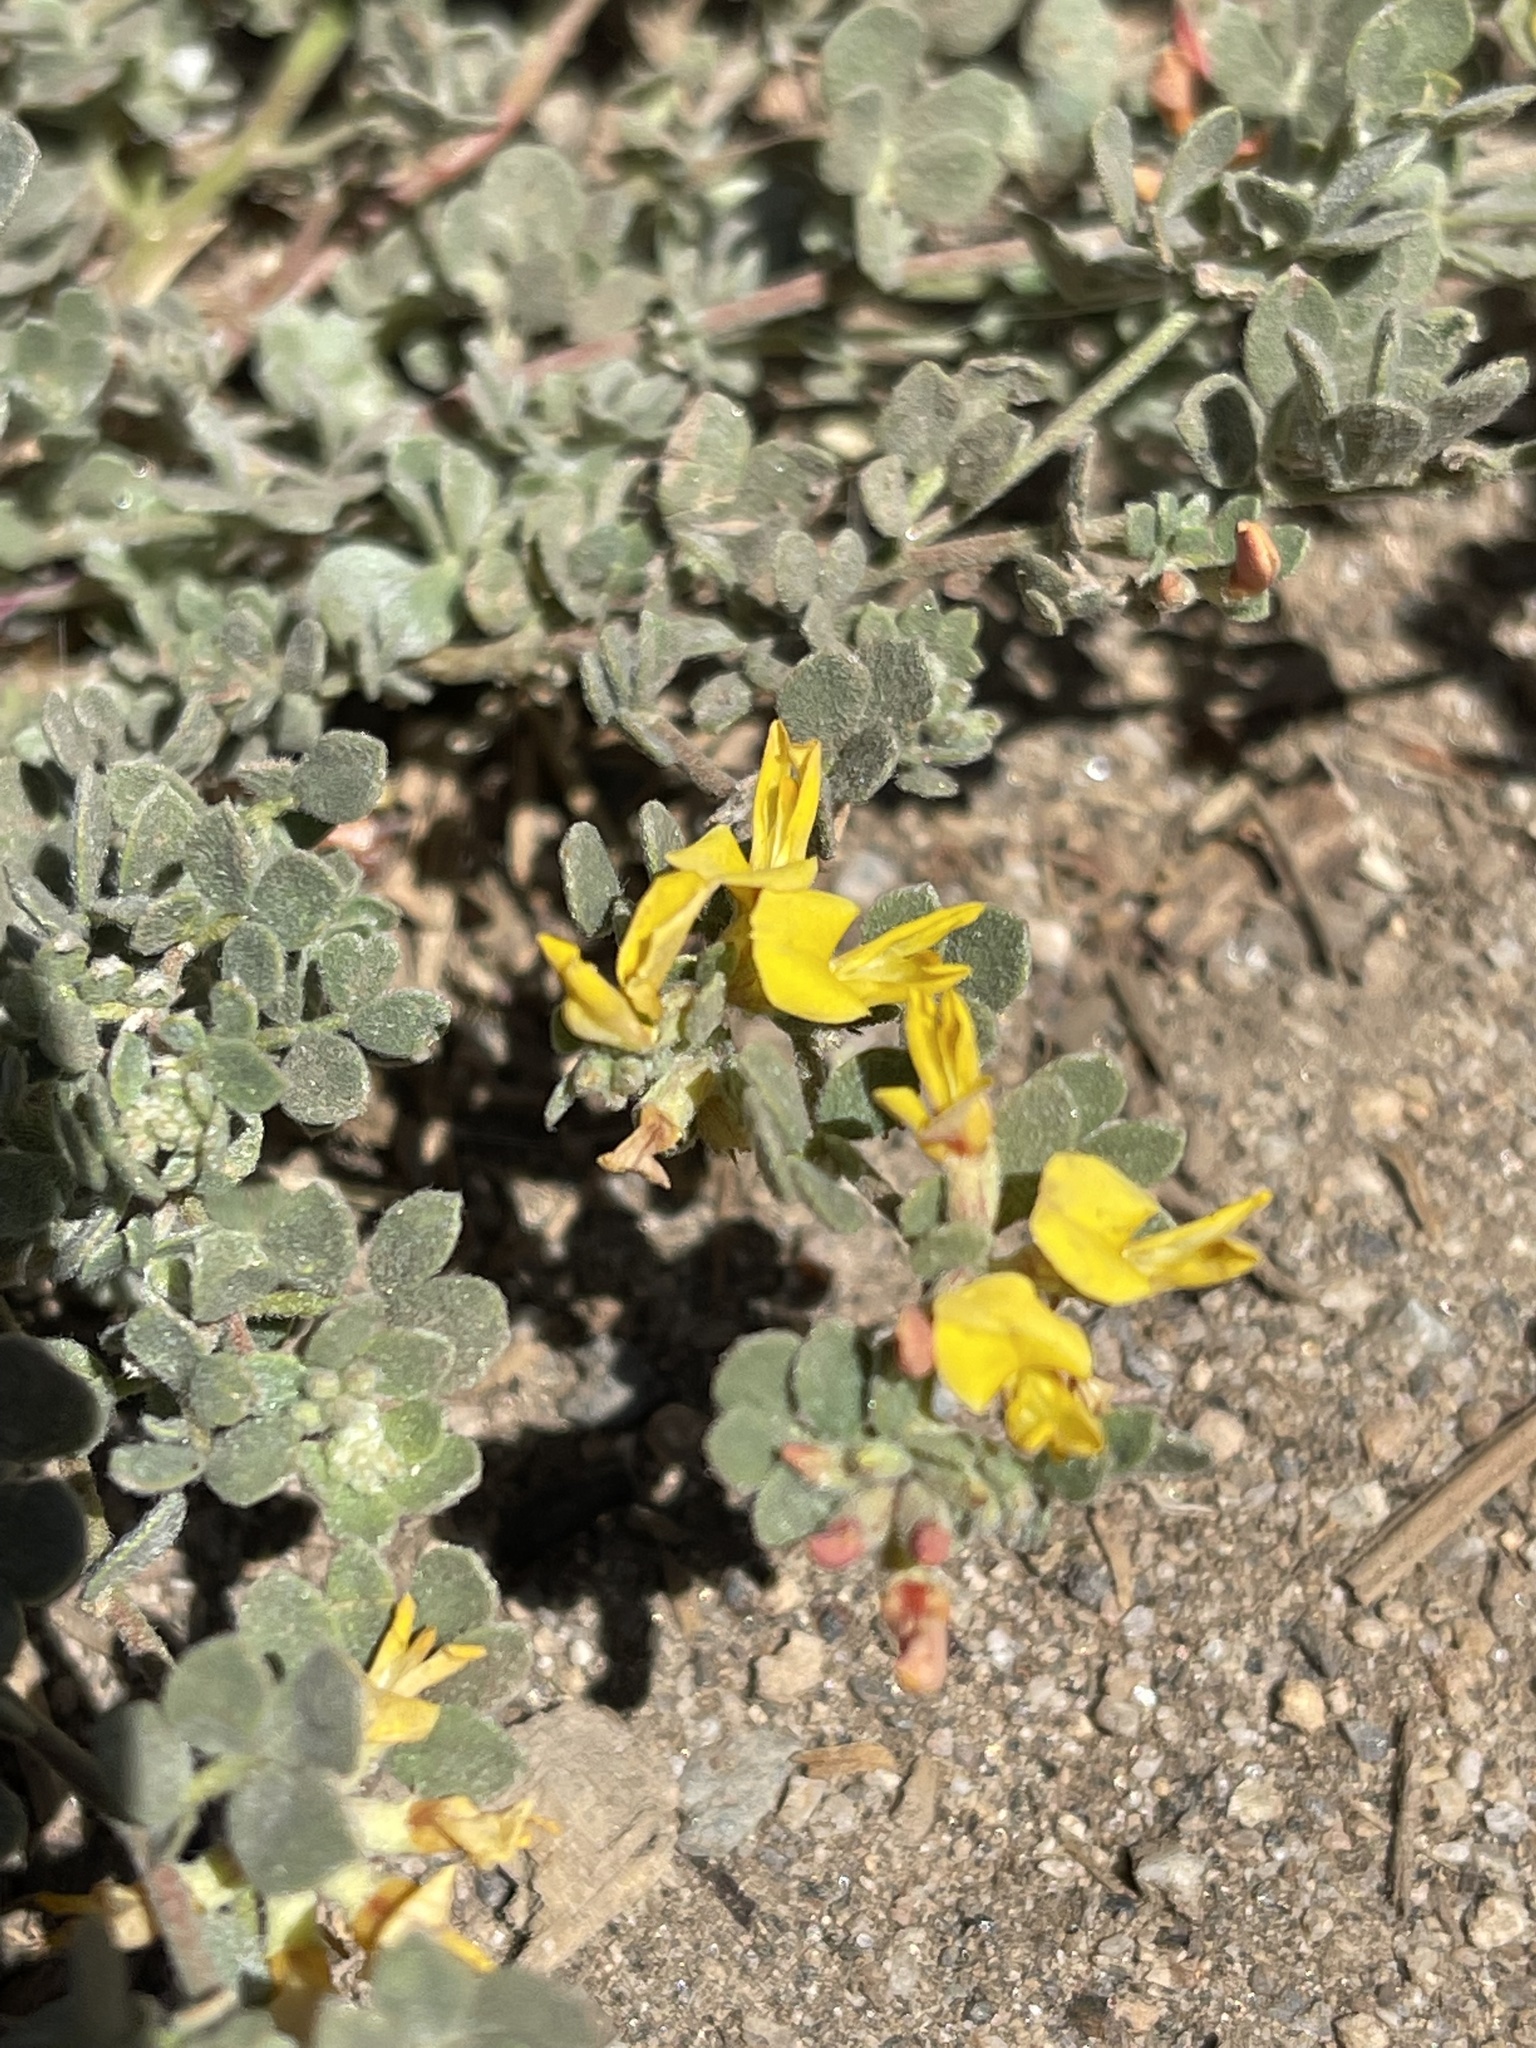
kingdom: Plantae
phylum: Tracheophyta
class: Magnoliopsida
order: Fabales
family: Fabaceae
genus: Acmispon
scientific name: Acmispon decumbens
